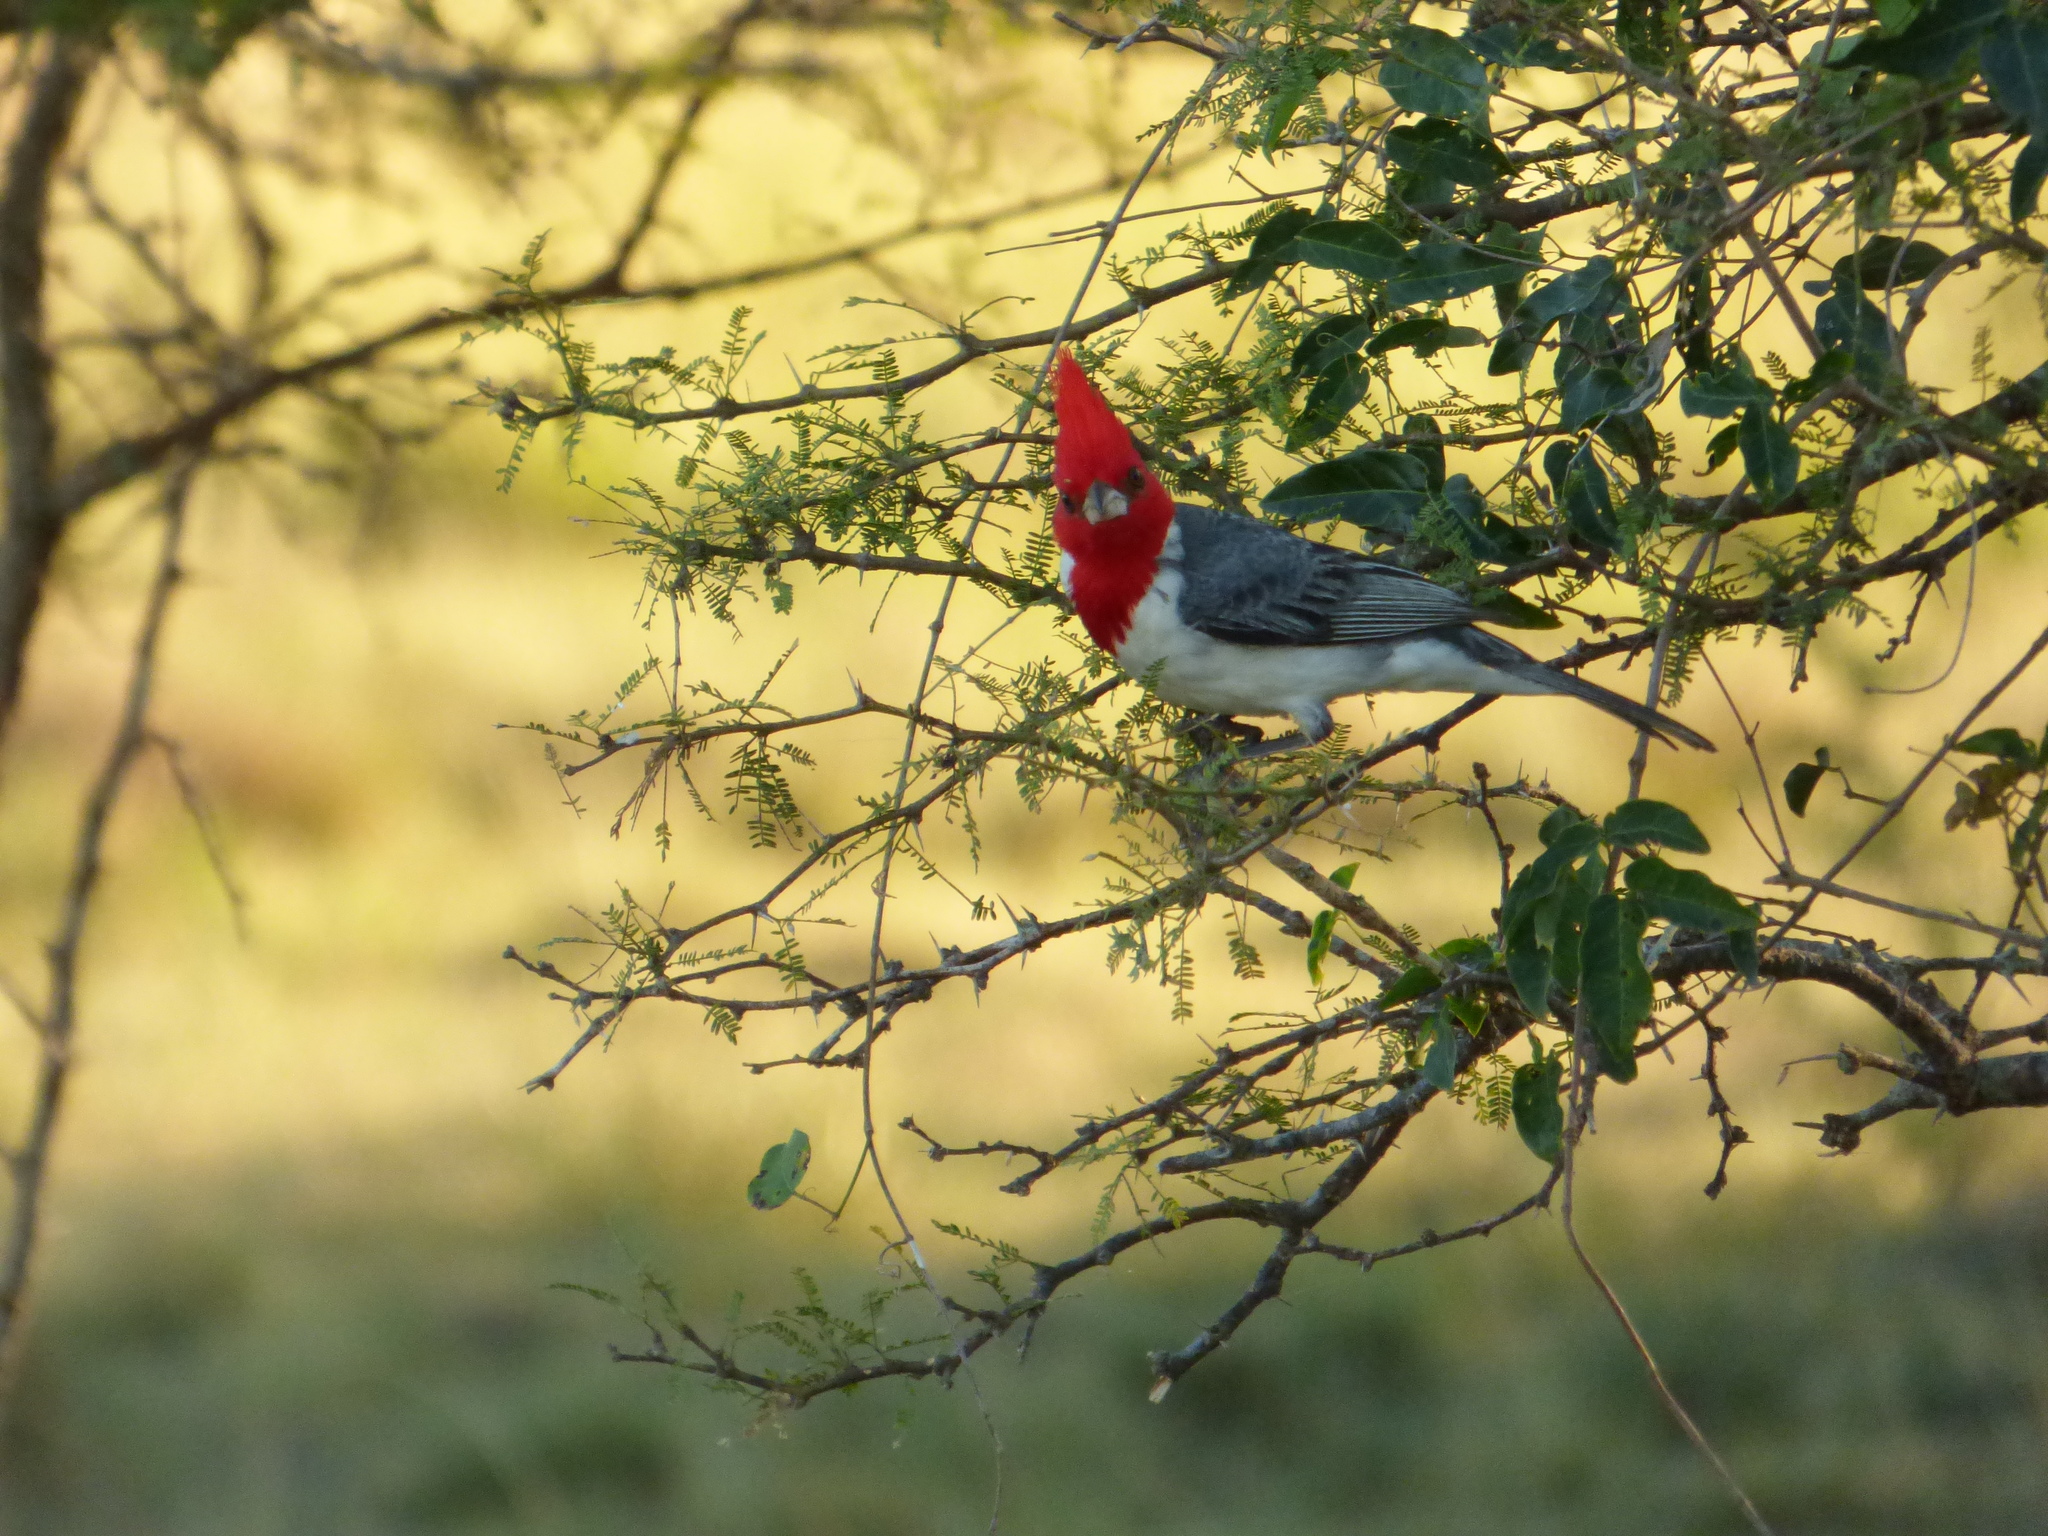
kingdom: Animalia
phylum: Chordata
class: Aves
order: Passeriformes
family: Thraupidae
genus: Paroaria
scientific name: Paroaria coronata
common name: Red-crested cardinal
